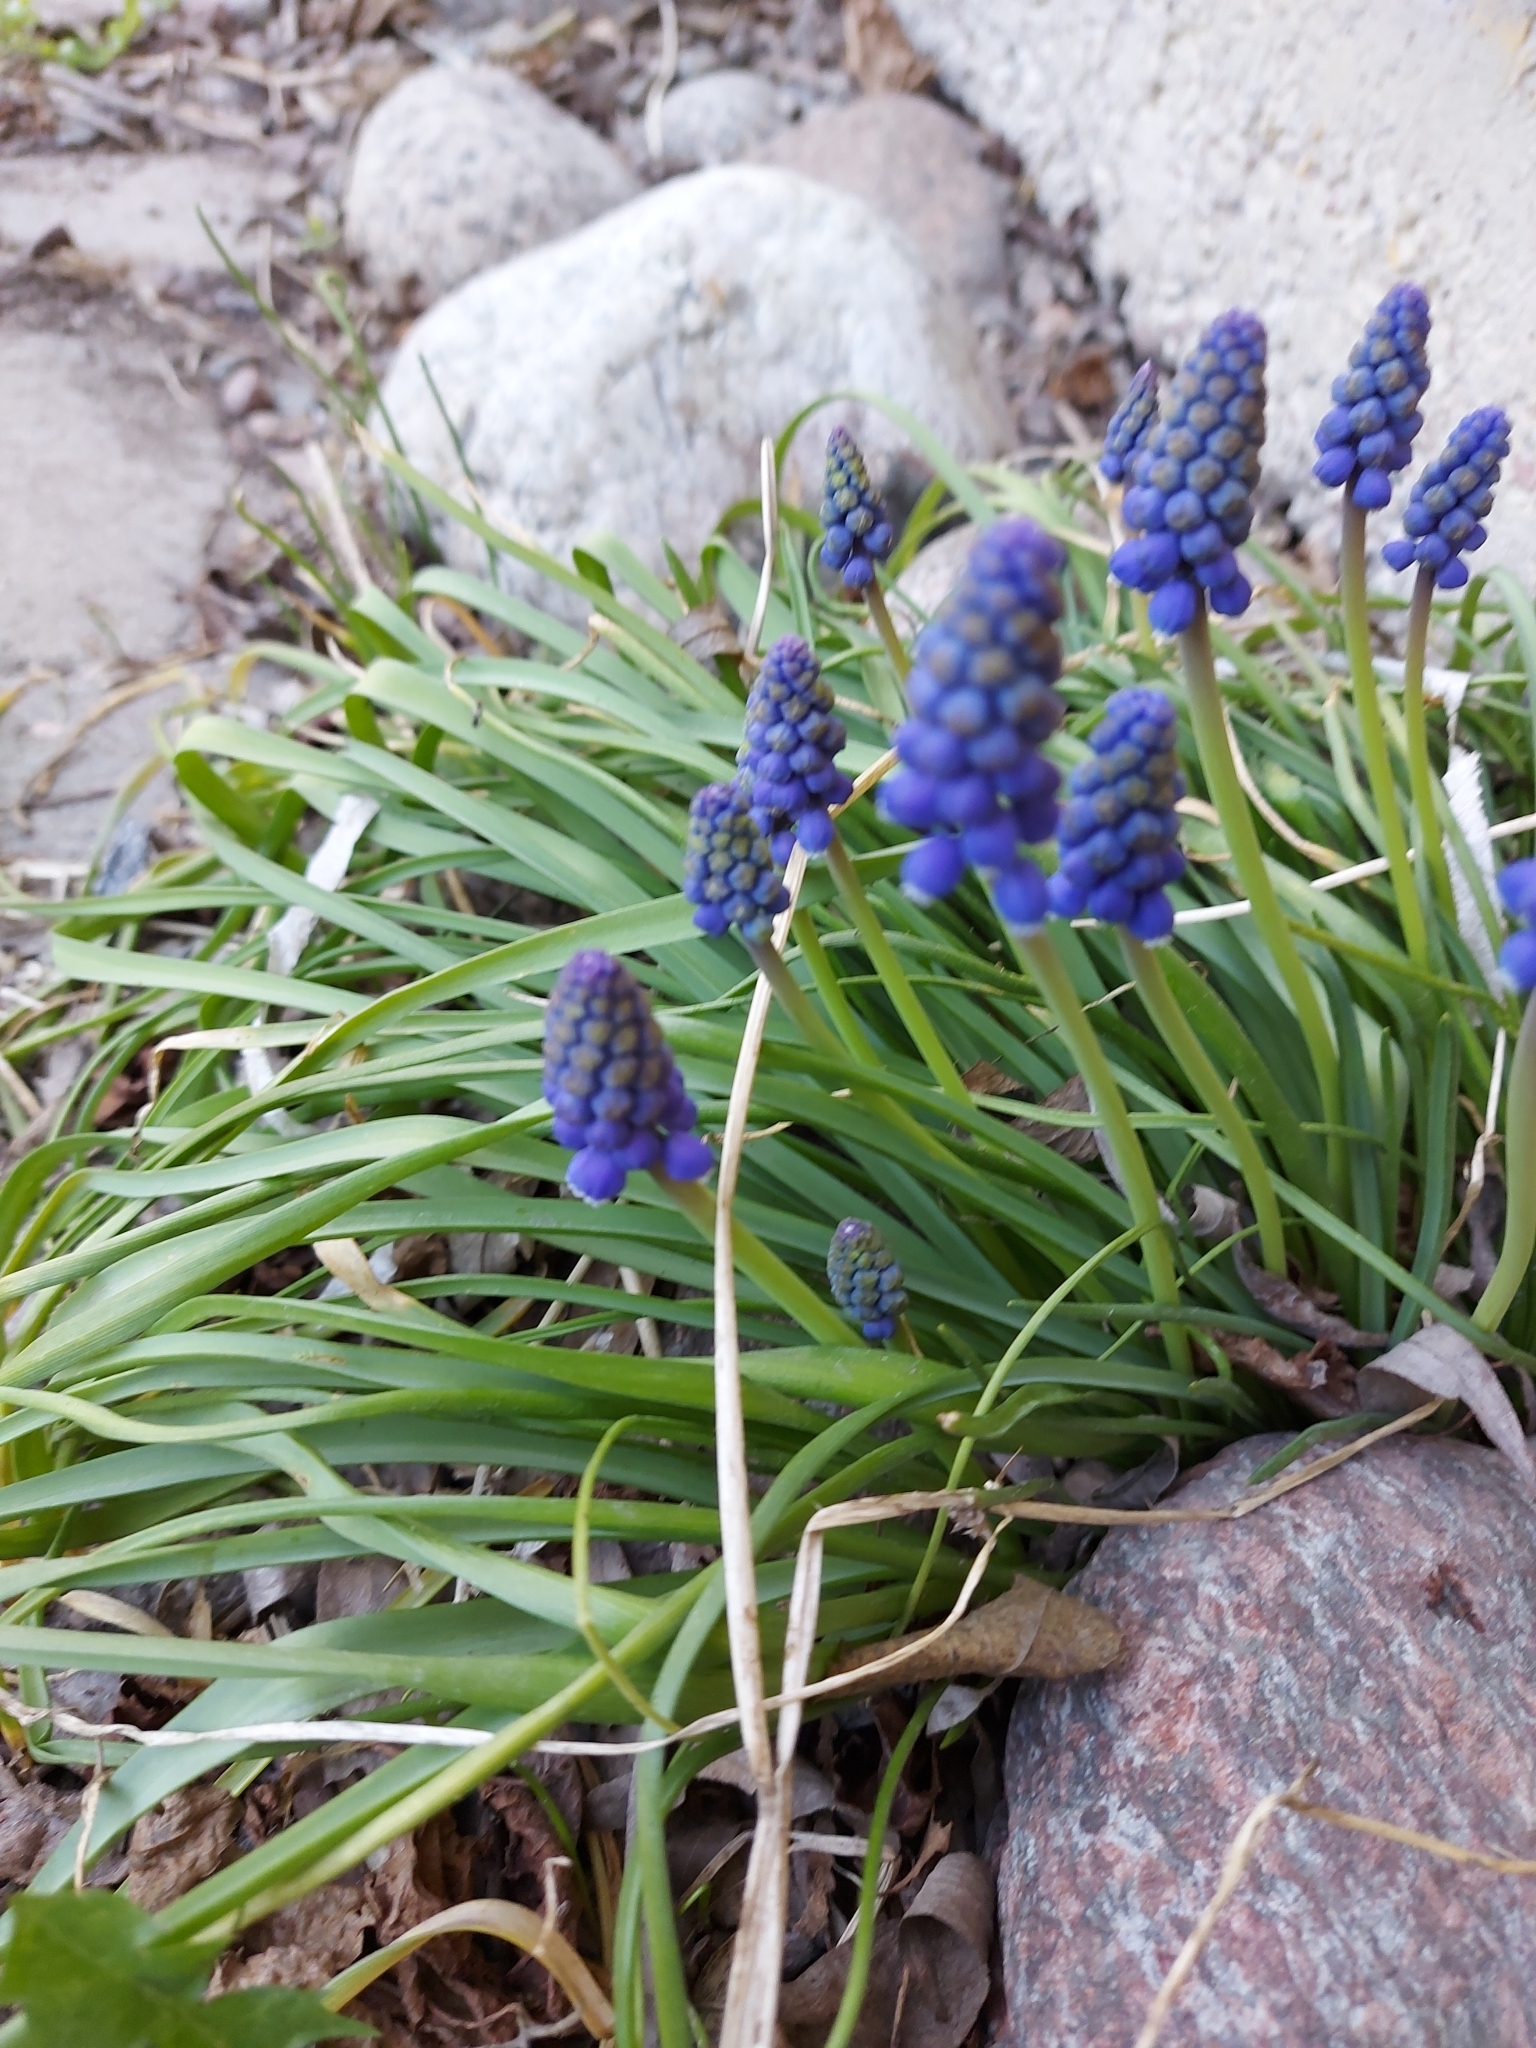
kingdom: Plantae
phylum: Tracheophyta
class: Liliopsida
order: Asparagales
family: Asparagaceae
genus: Muscari
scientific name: Muscari botryoides
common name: Compact grape-hyacinth
